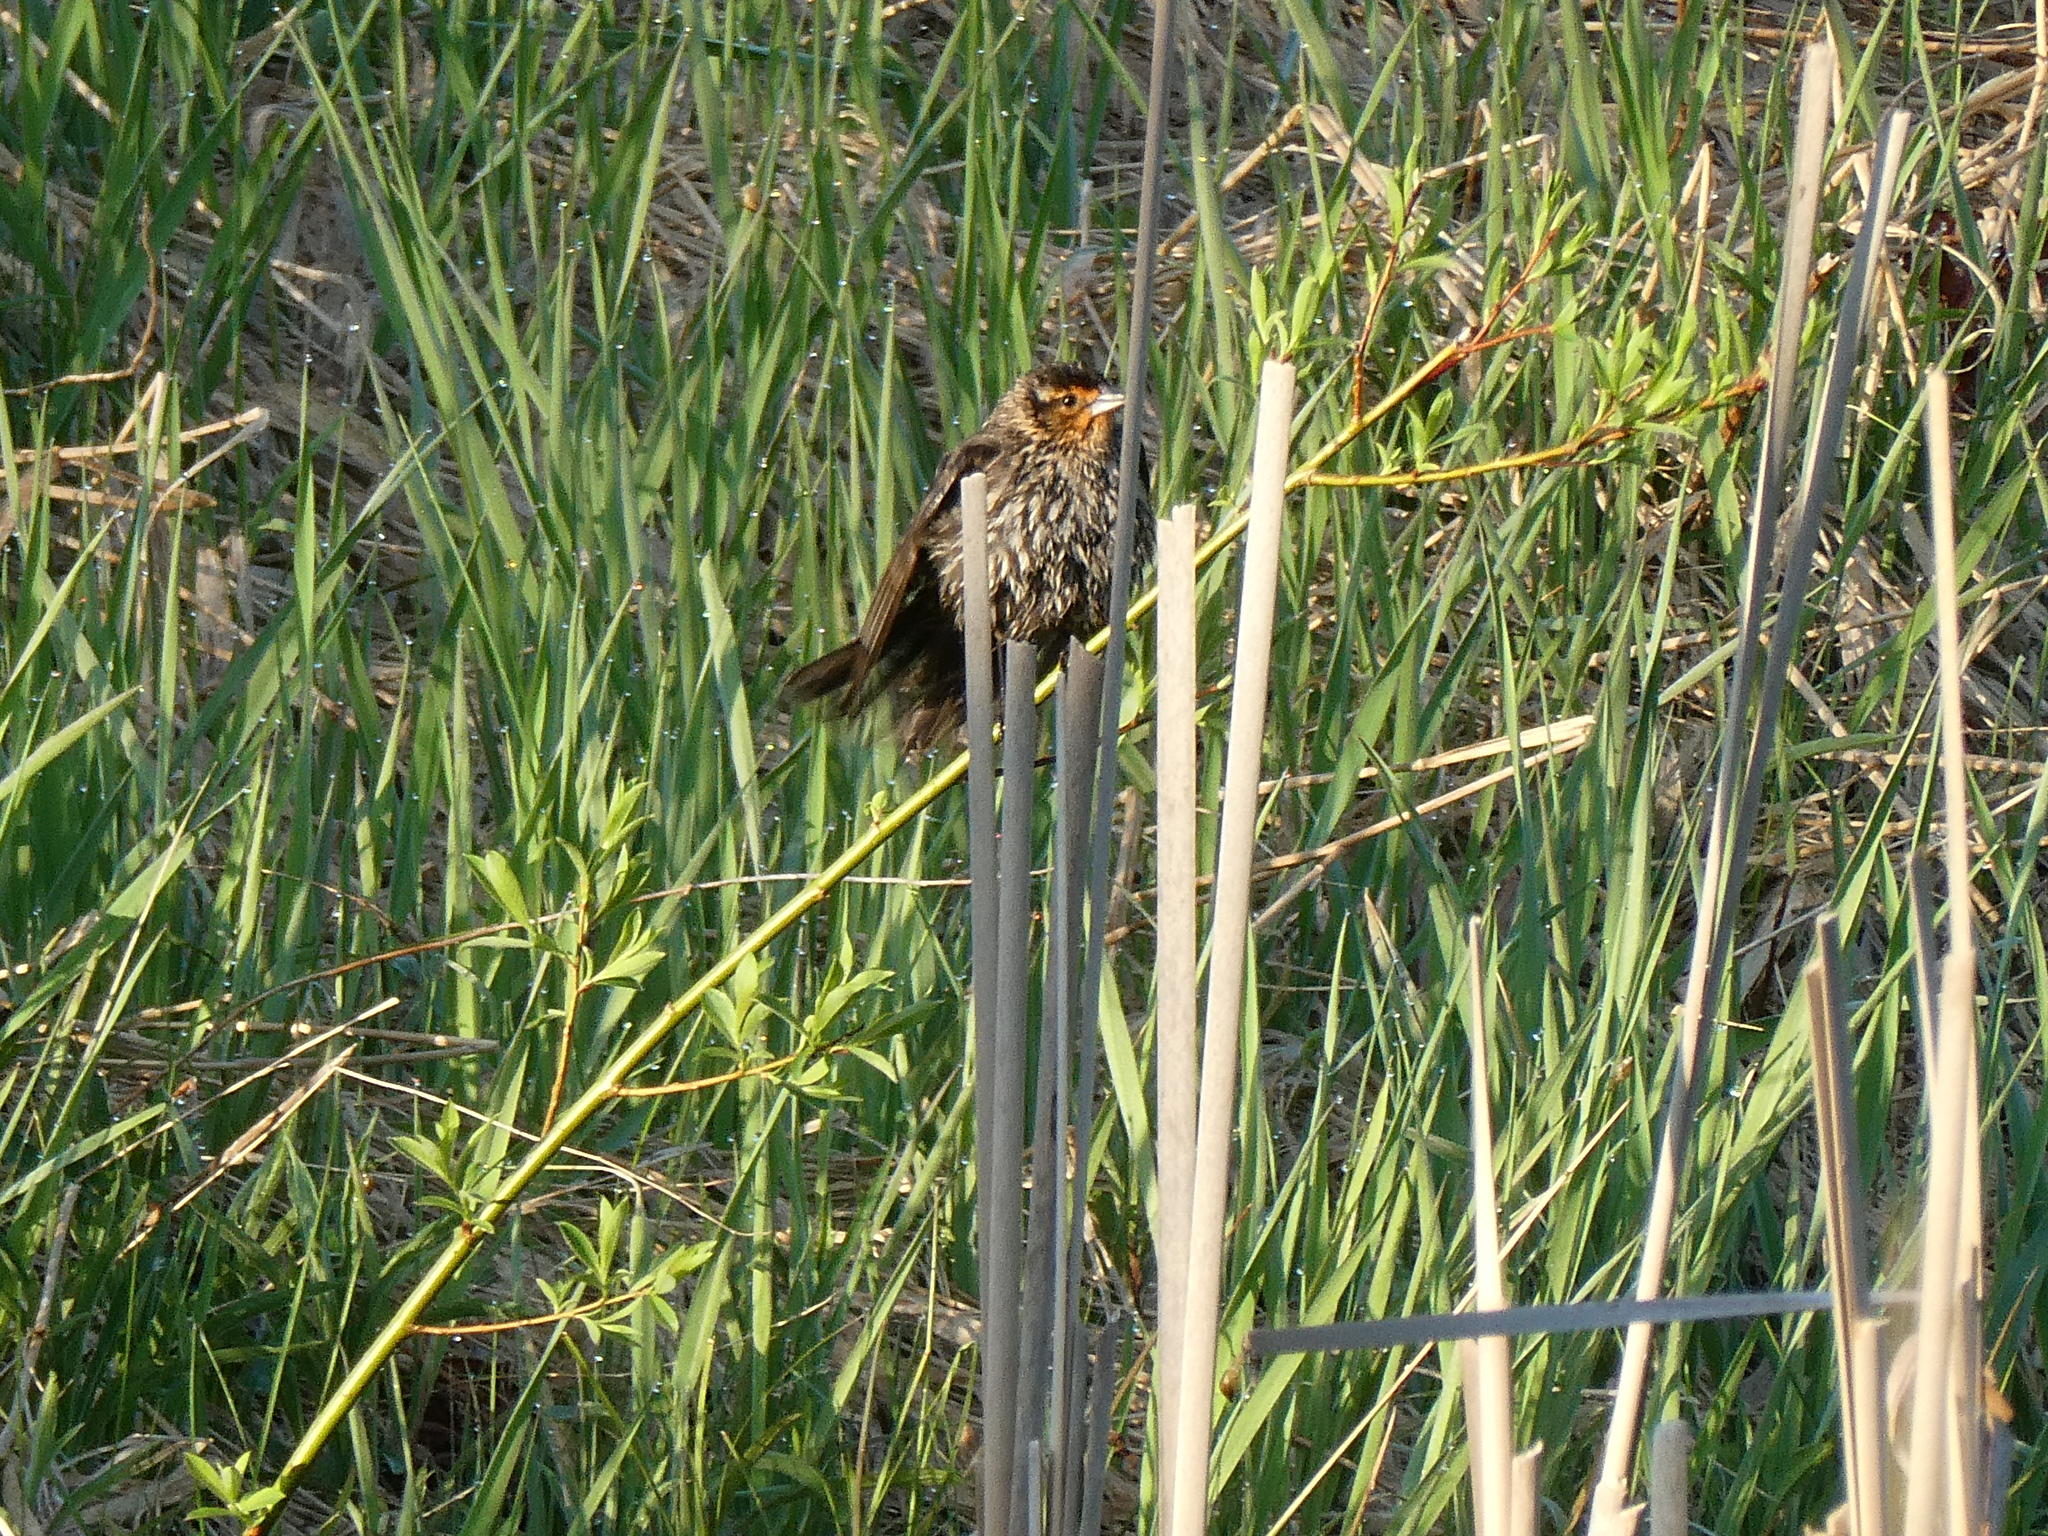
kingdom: Animalia
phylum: Chordata
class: Aves
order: Passeriformes
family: Icteridae
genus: Agelaius
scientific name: Agelaius phoeniceus
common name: Red-winged blackbird
